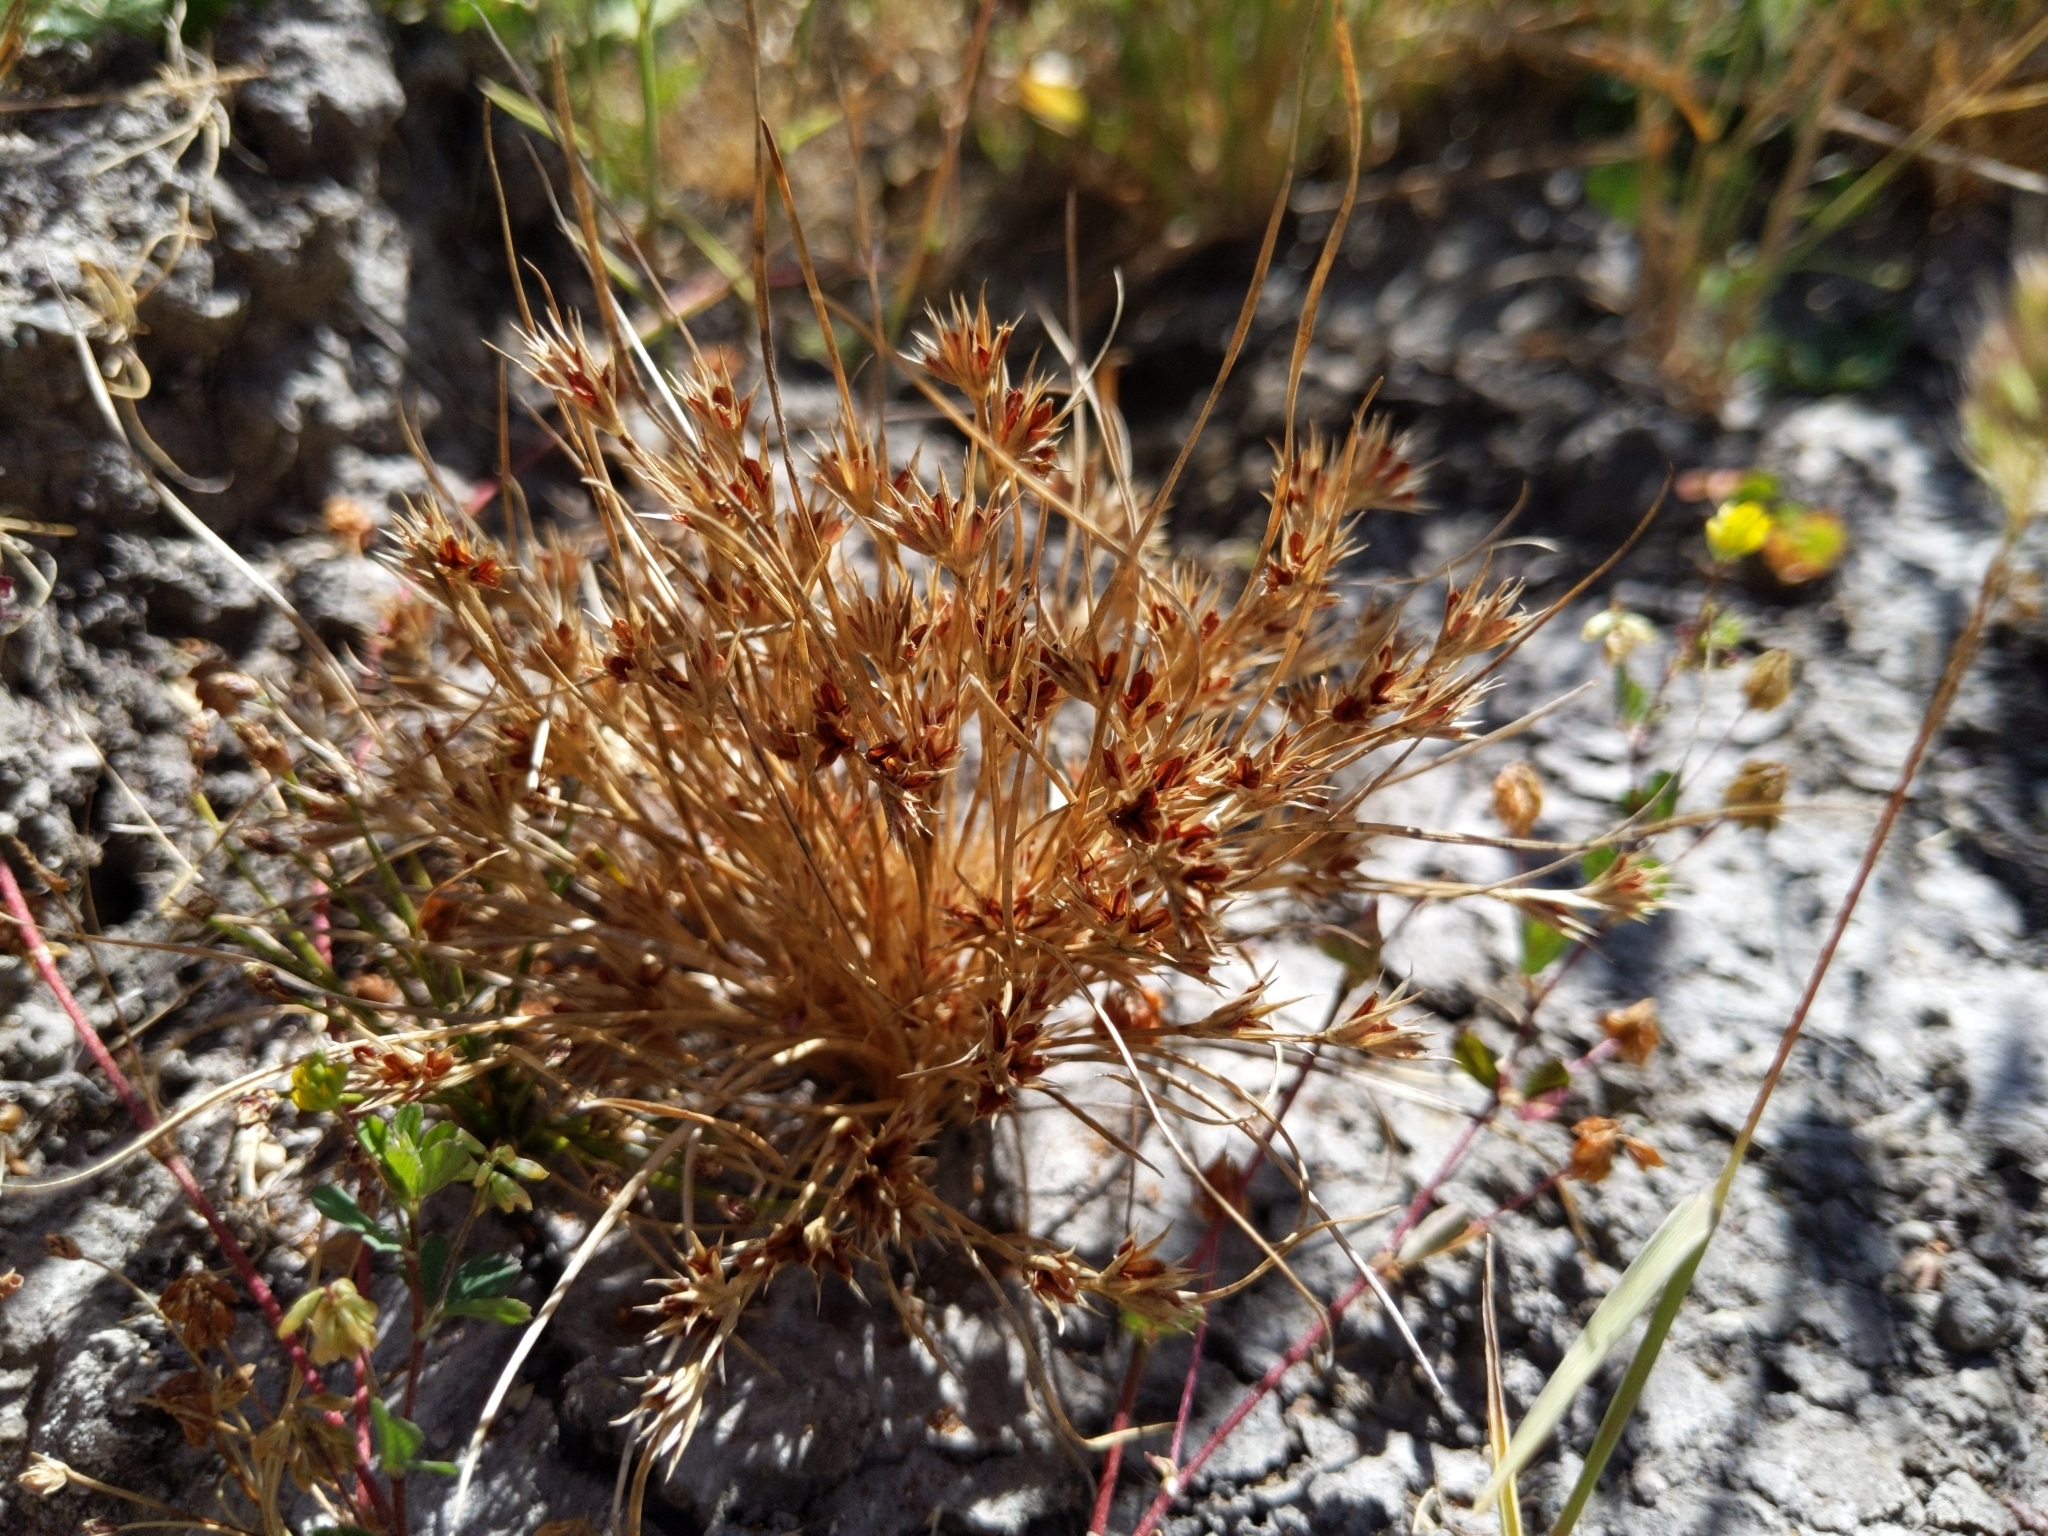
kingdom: Plantae
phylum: Tracheophyta
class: Liliopsida
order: Poales
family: Juncaceae
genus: Juncus
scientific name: Juncus bufonius
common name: Toad rush
